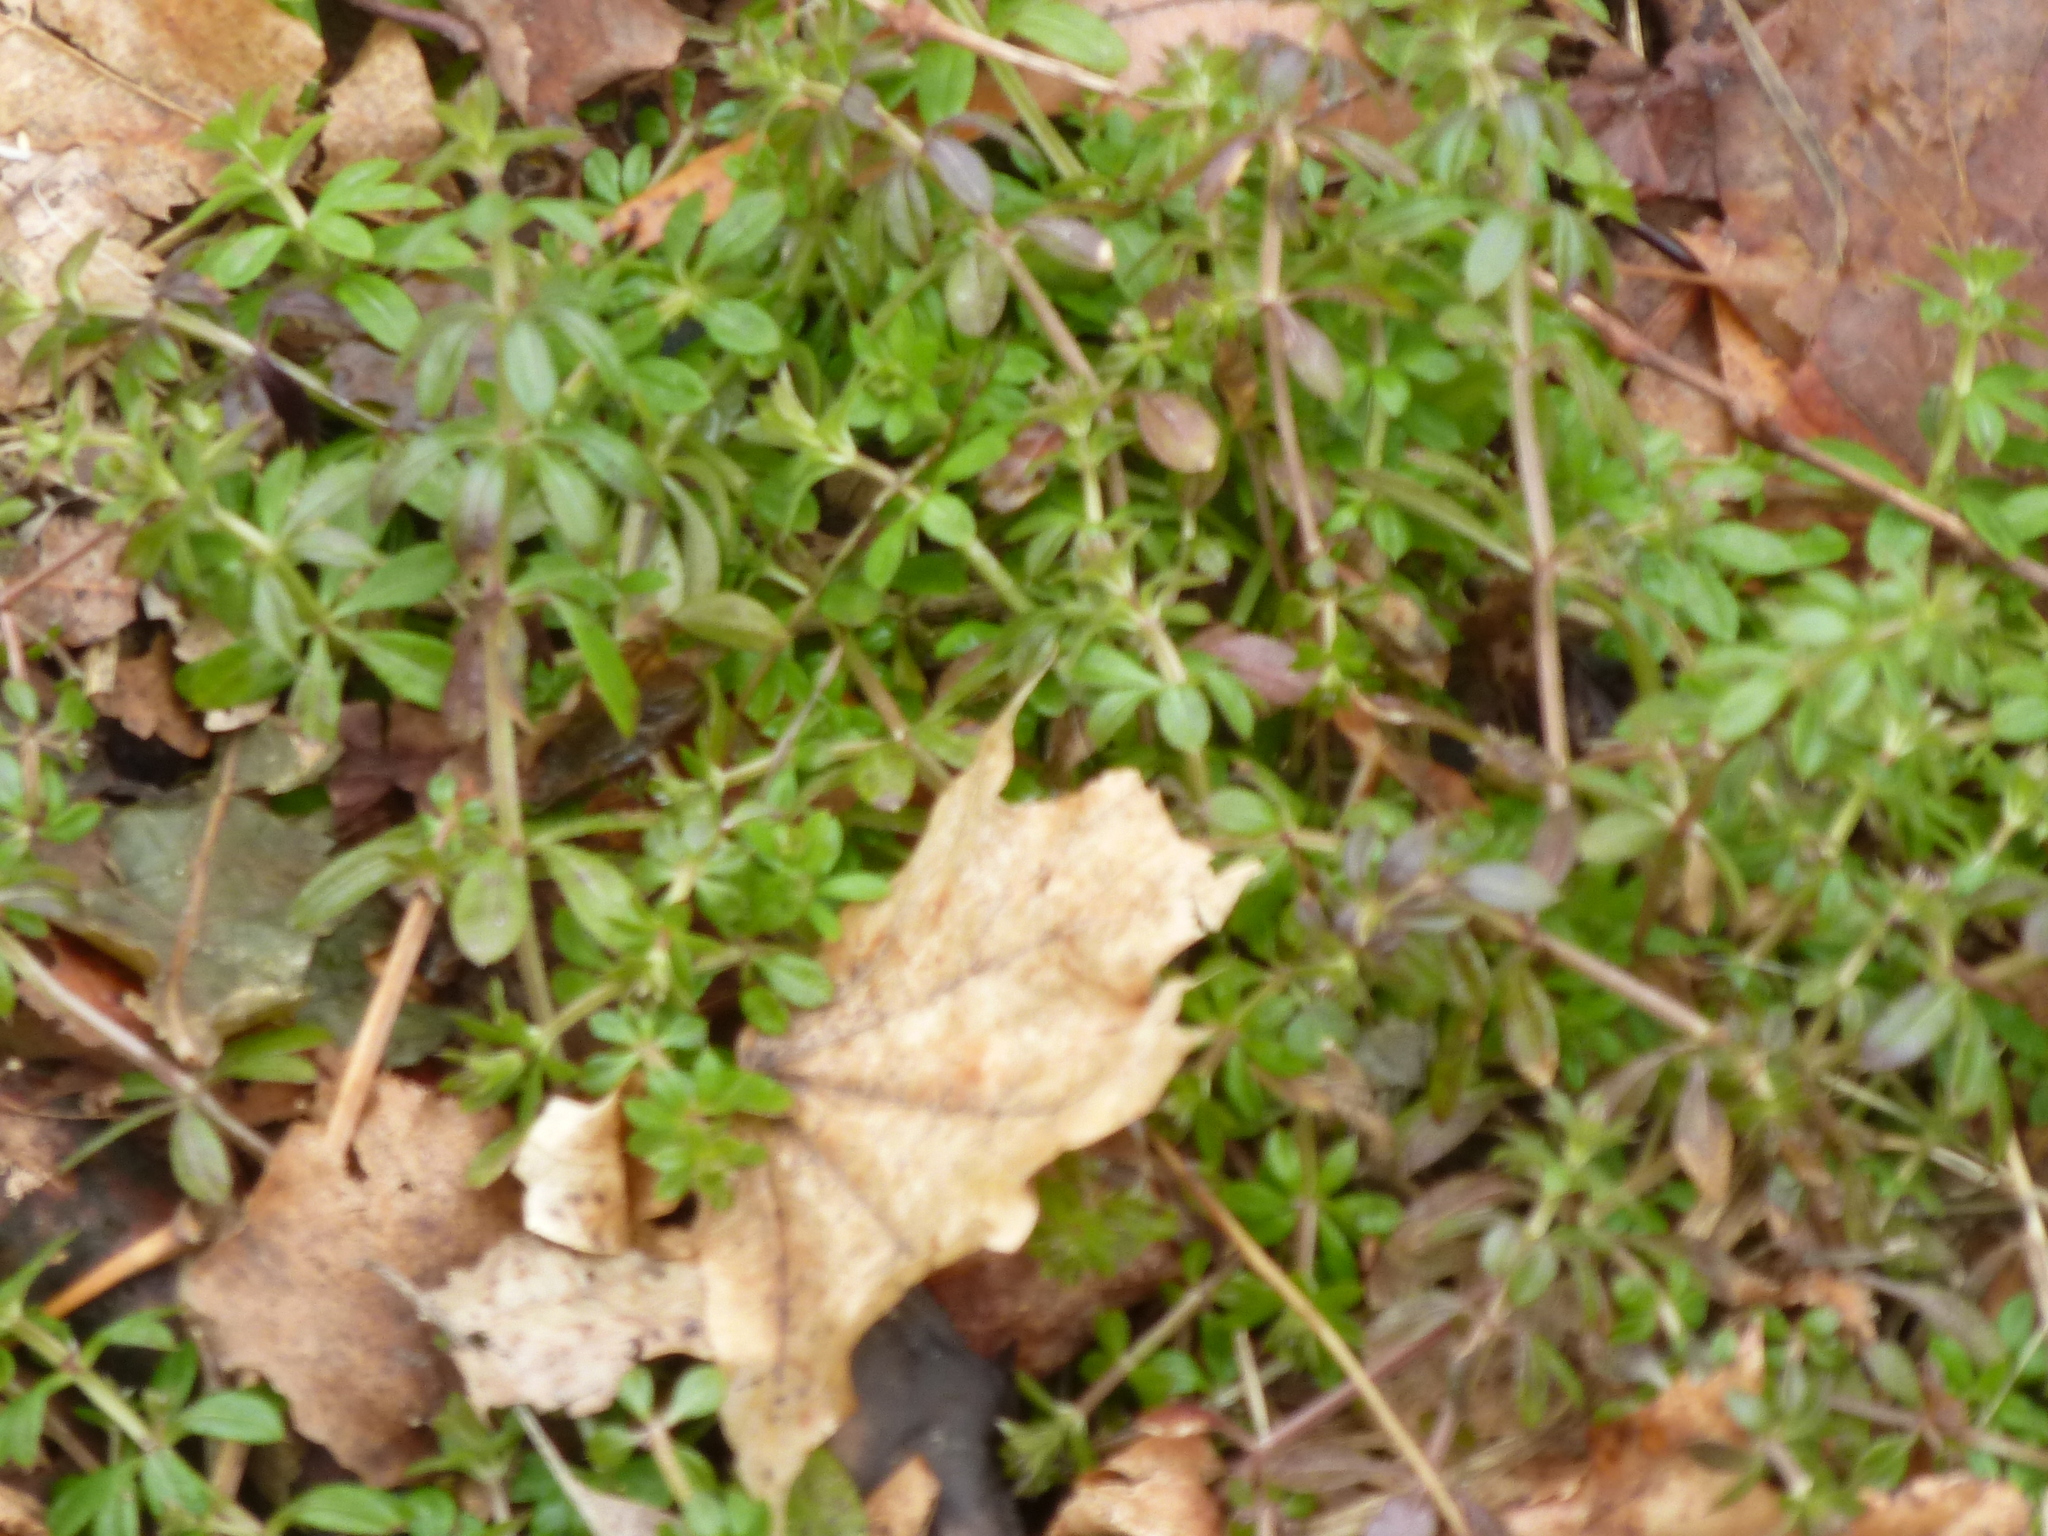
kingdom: Plantae
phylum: Tracheophyta
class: Magnoliopsida
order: Gentianales
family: Rubiaceae
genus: Galium
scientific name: Galium aparine
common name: Cleavers
